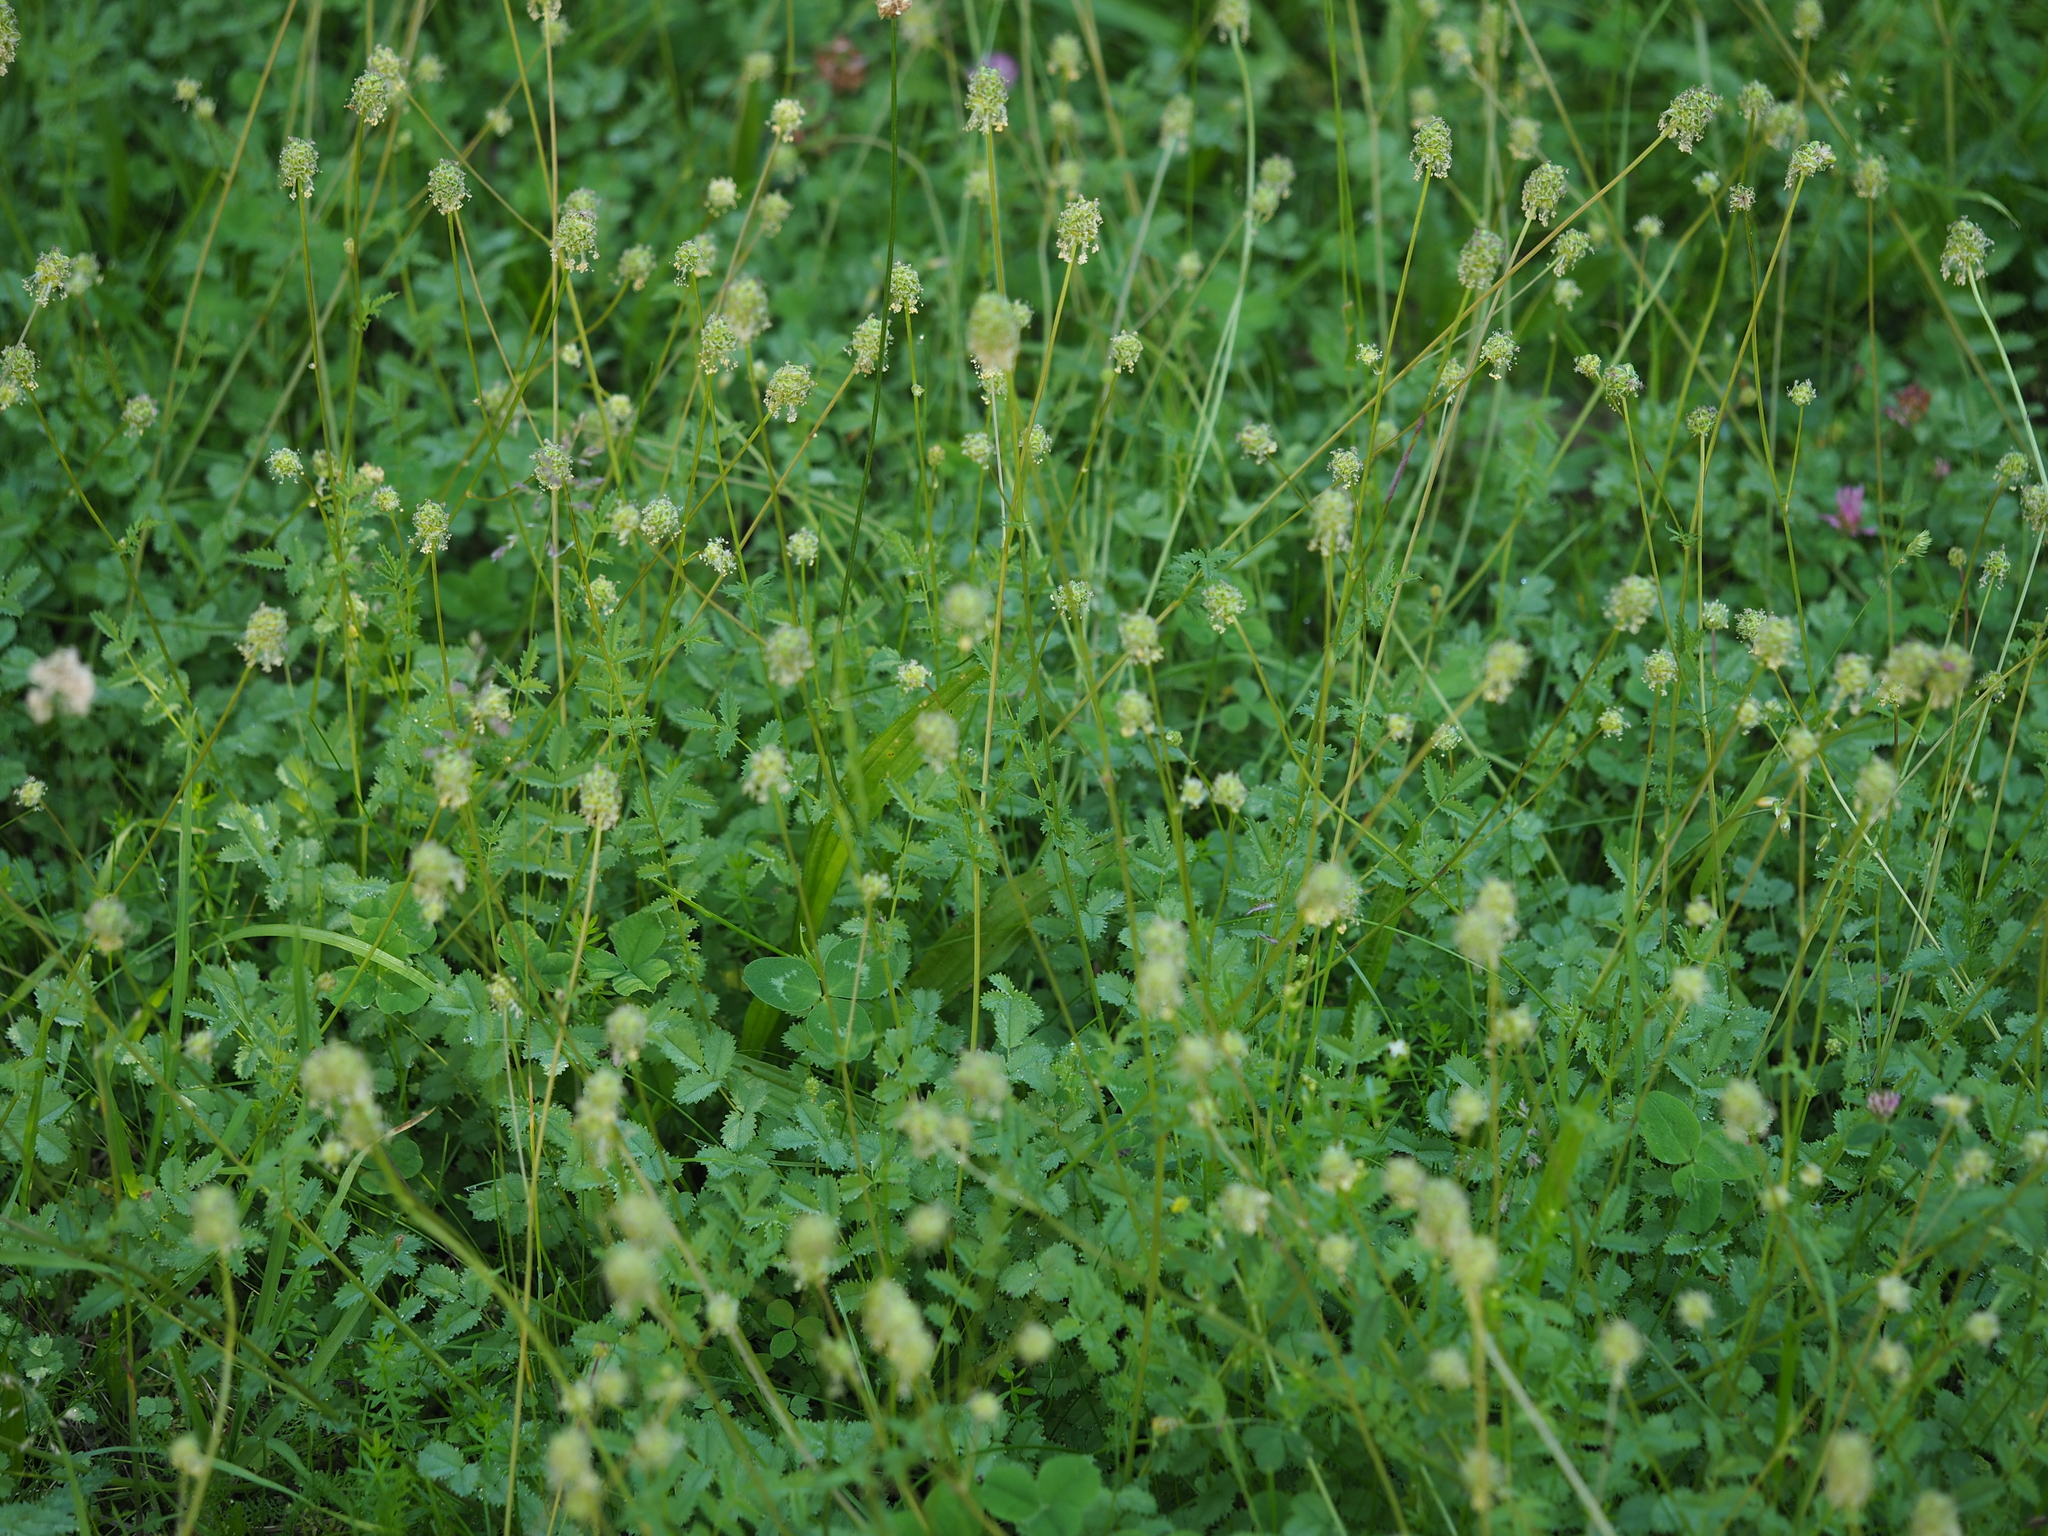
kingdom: Plantae
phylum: Tracheophyta
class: Magnoliopsida
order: Rosales
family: Rosaceae
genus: Poterium
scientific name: Poterium sanguisorba
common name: Salad burnet
